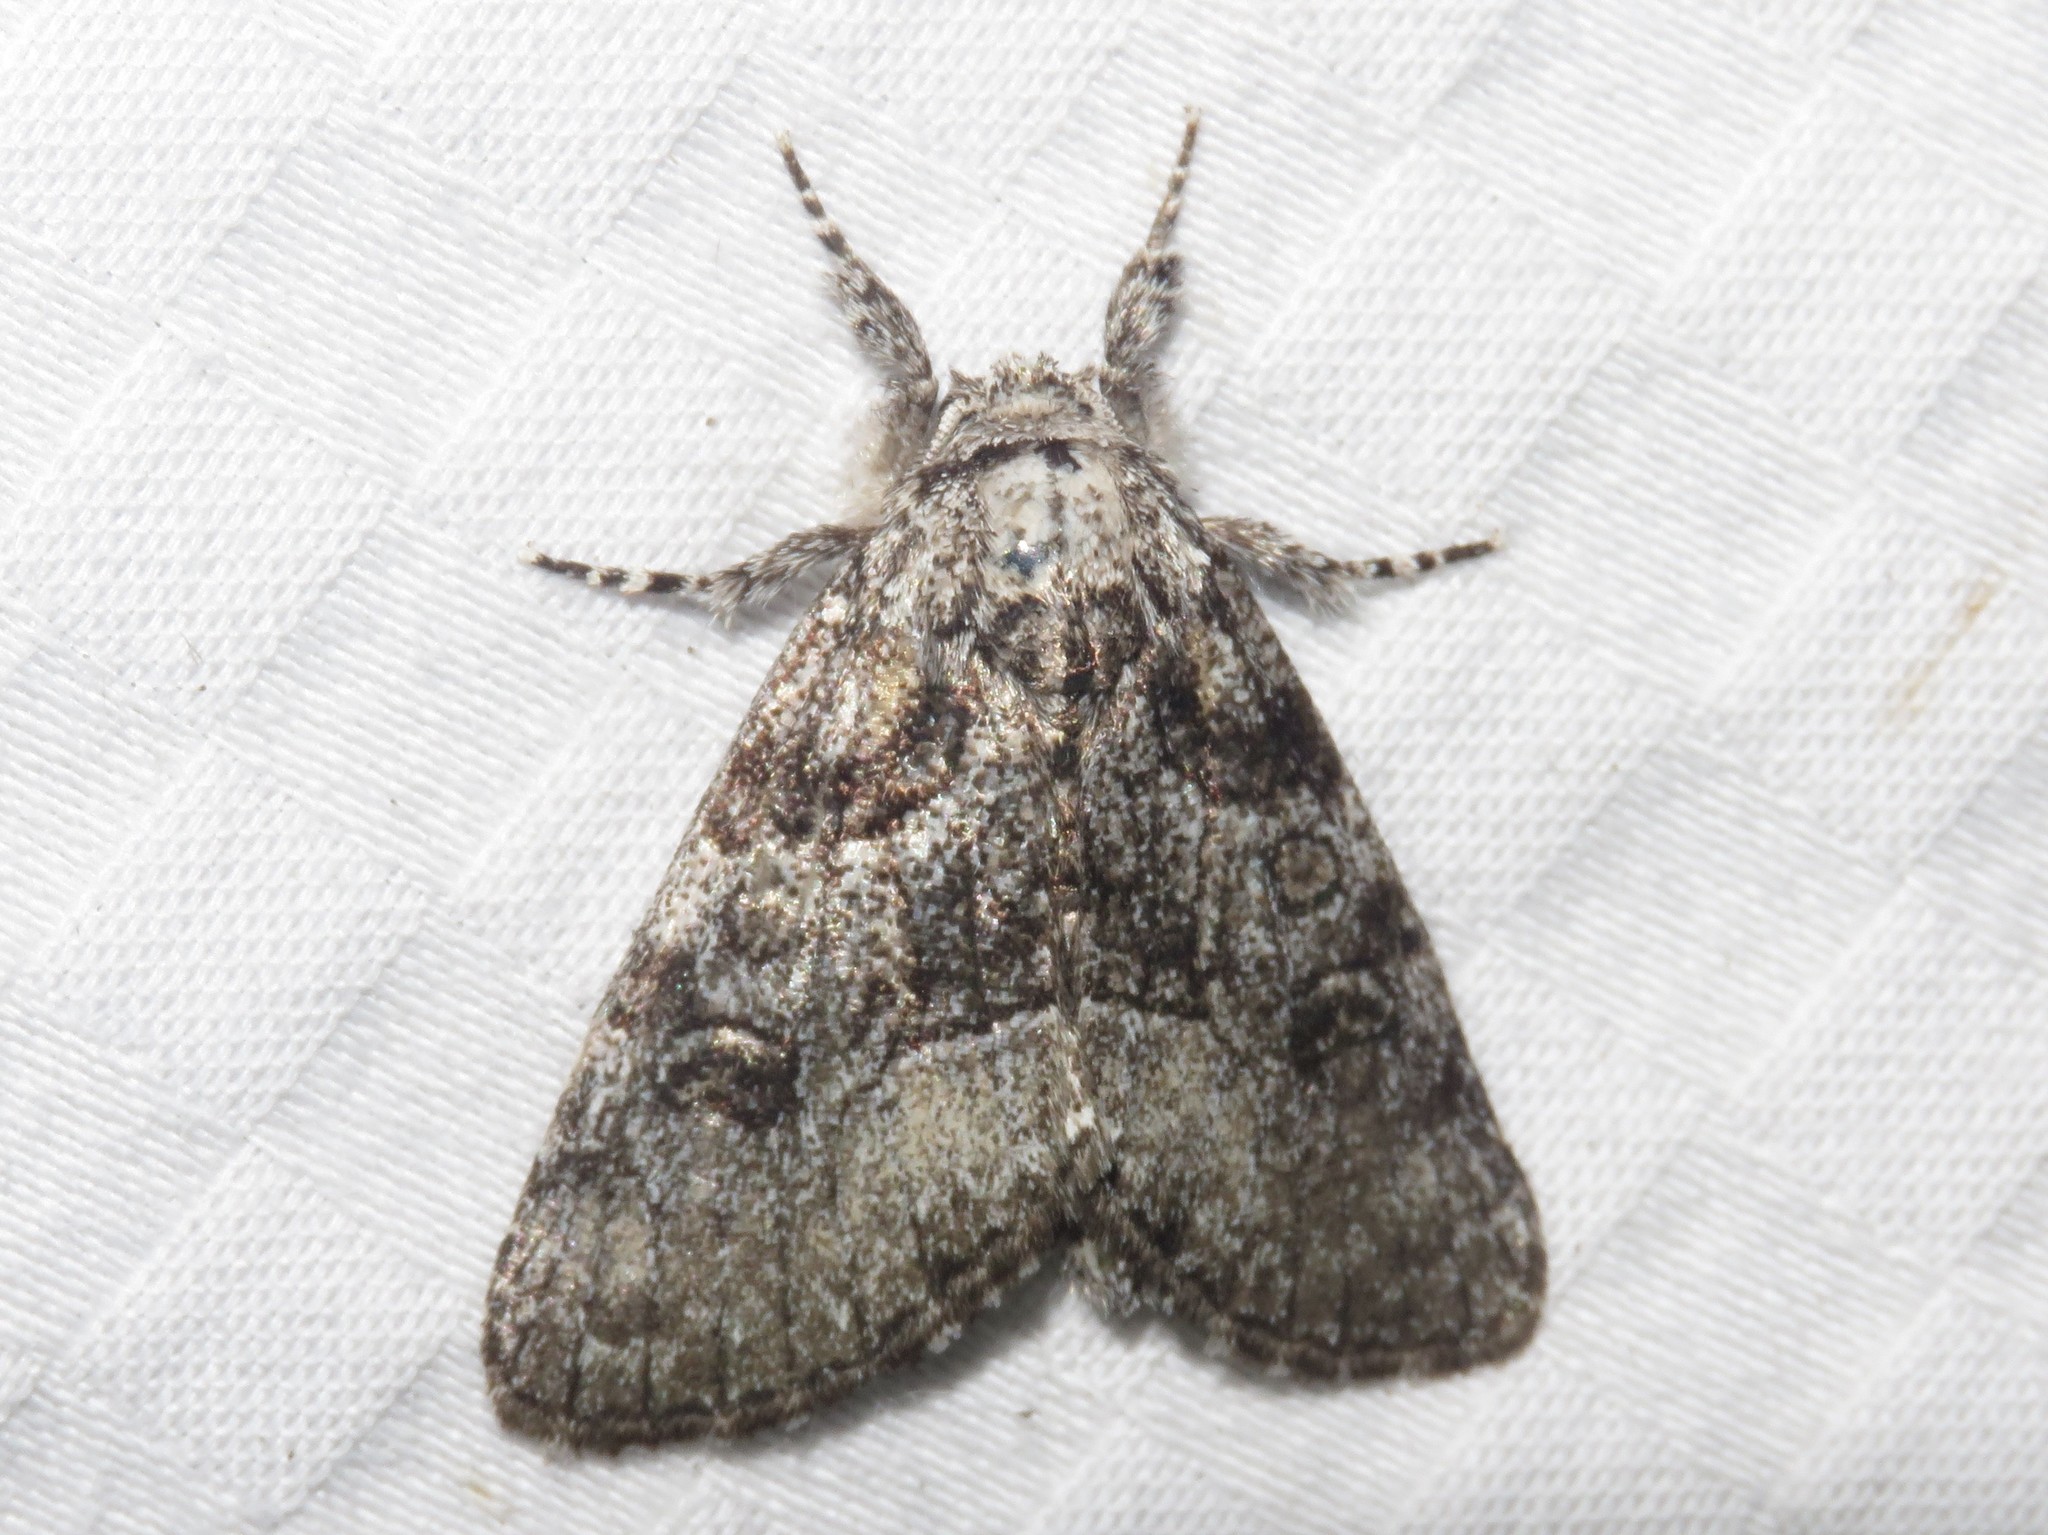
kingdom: Animalia
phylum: Arthropoda
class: Insecta
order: Lepidoptera
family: Noctuidae
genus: Raphia
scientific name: Raphia frater
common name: Brother
